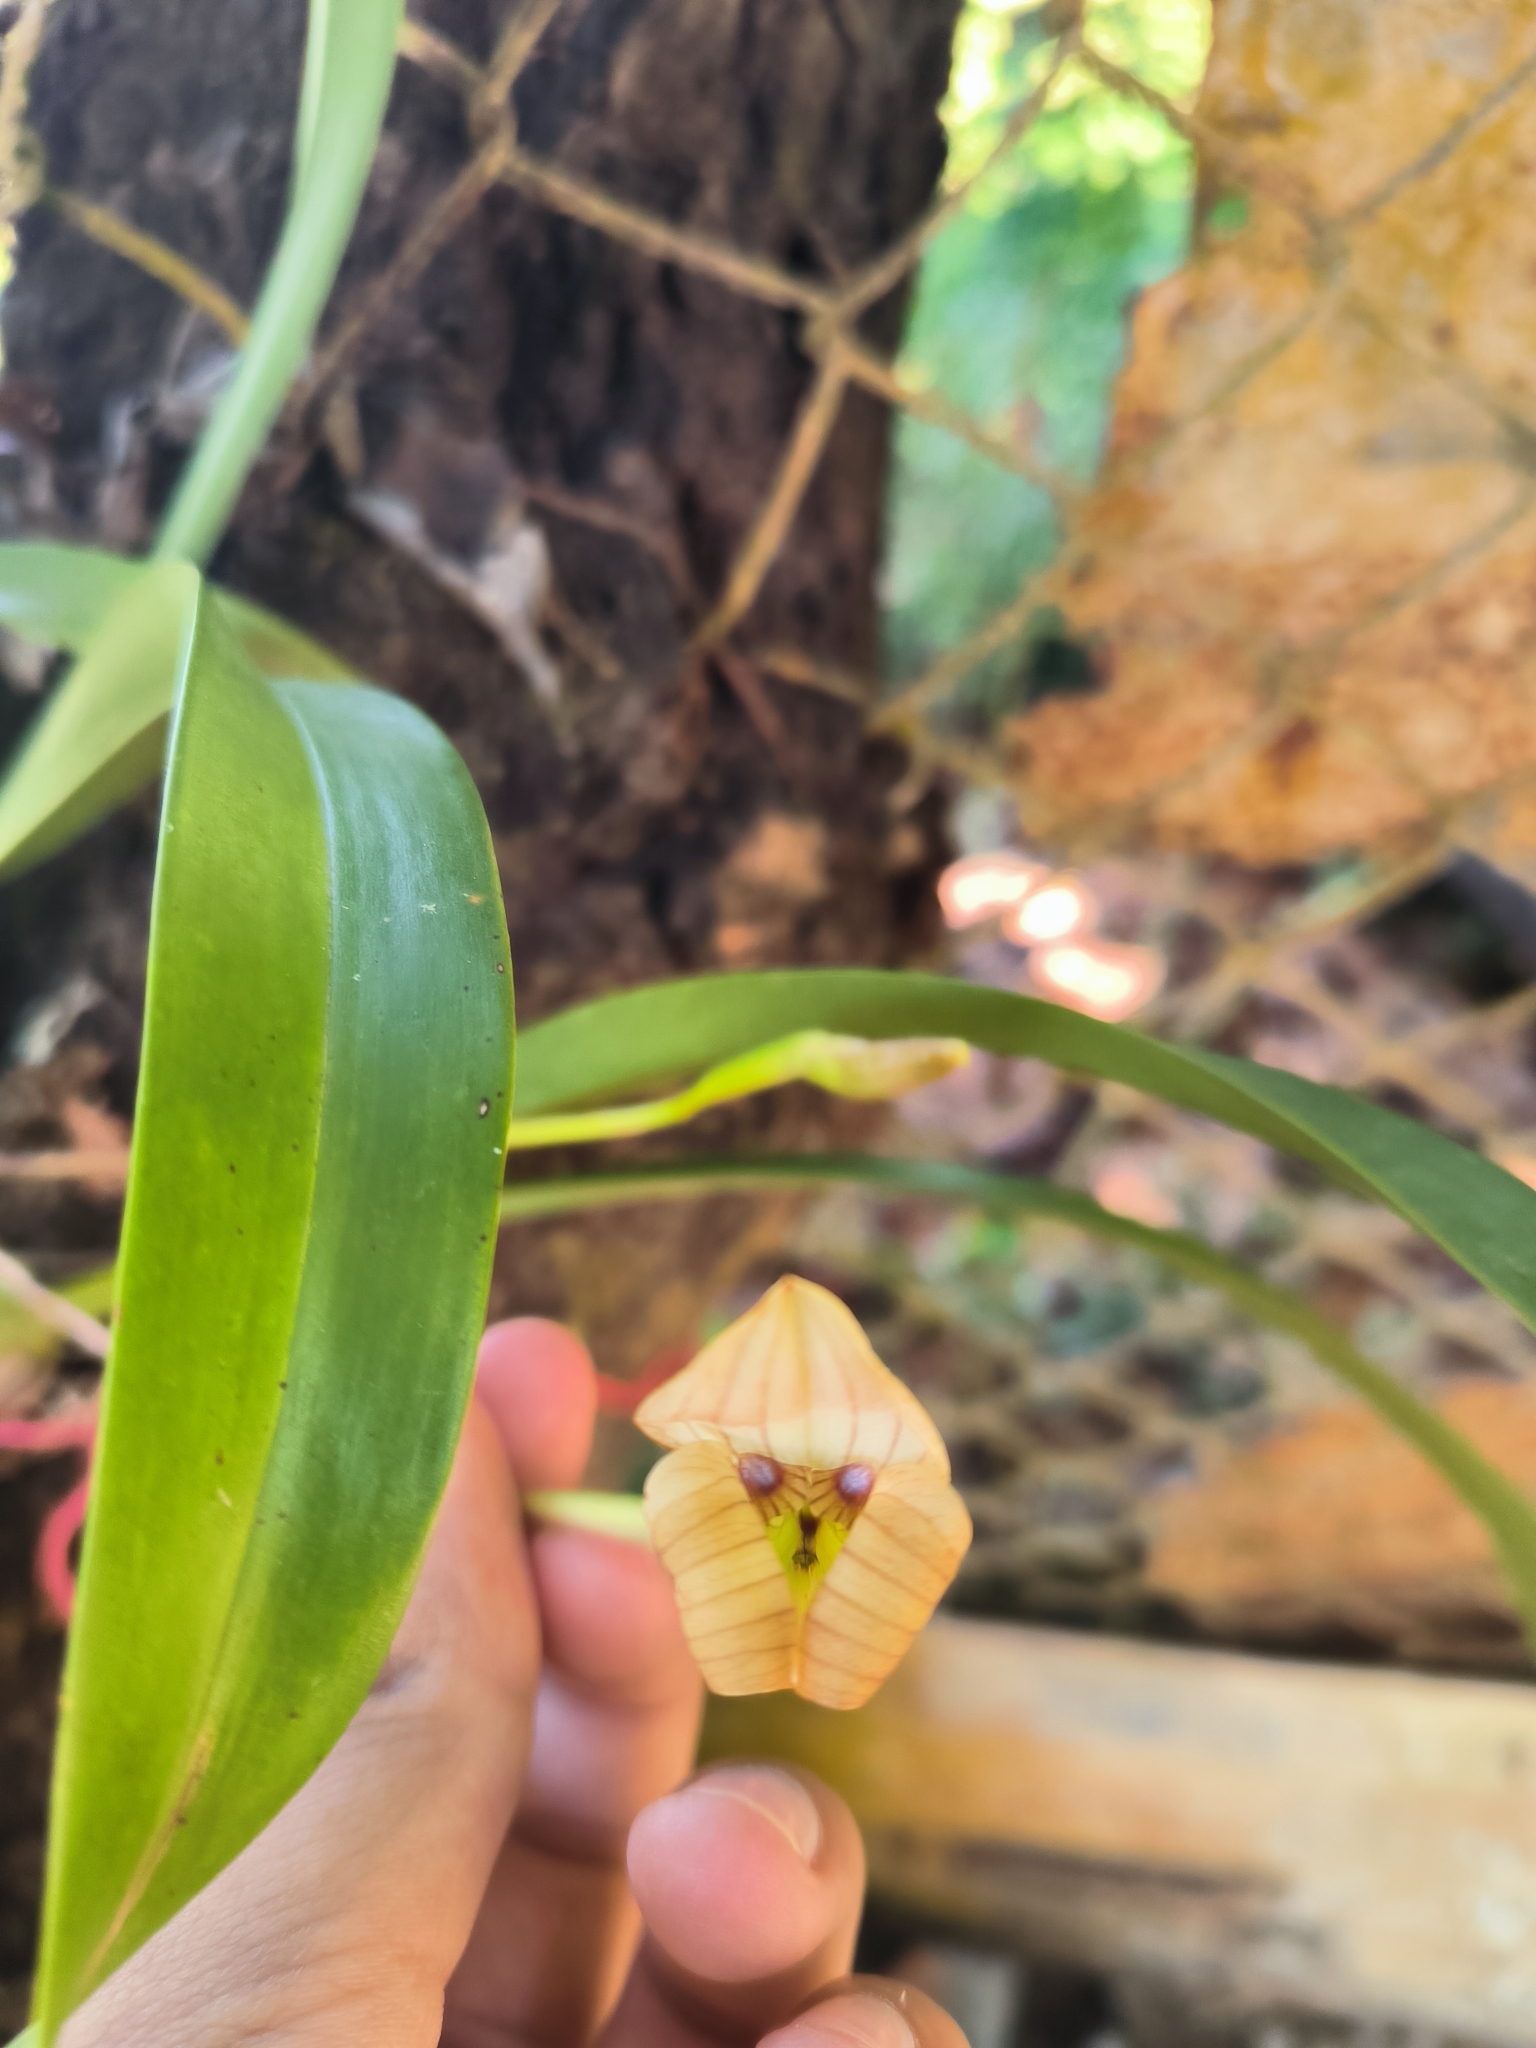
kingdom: Plantae
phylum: Tracheophyta
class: Liliopsida
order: Asparagales
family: Orchidaceae
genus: Maxillaria
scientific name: Maxillaria egertoniana
